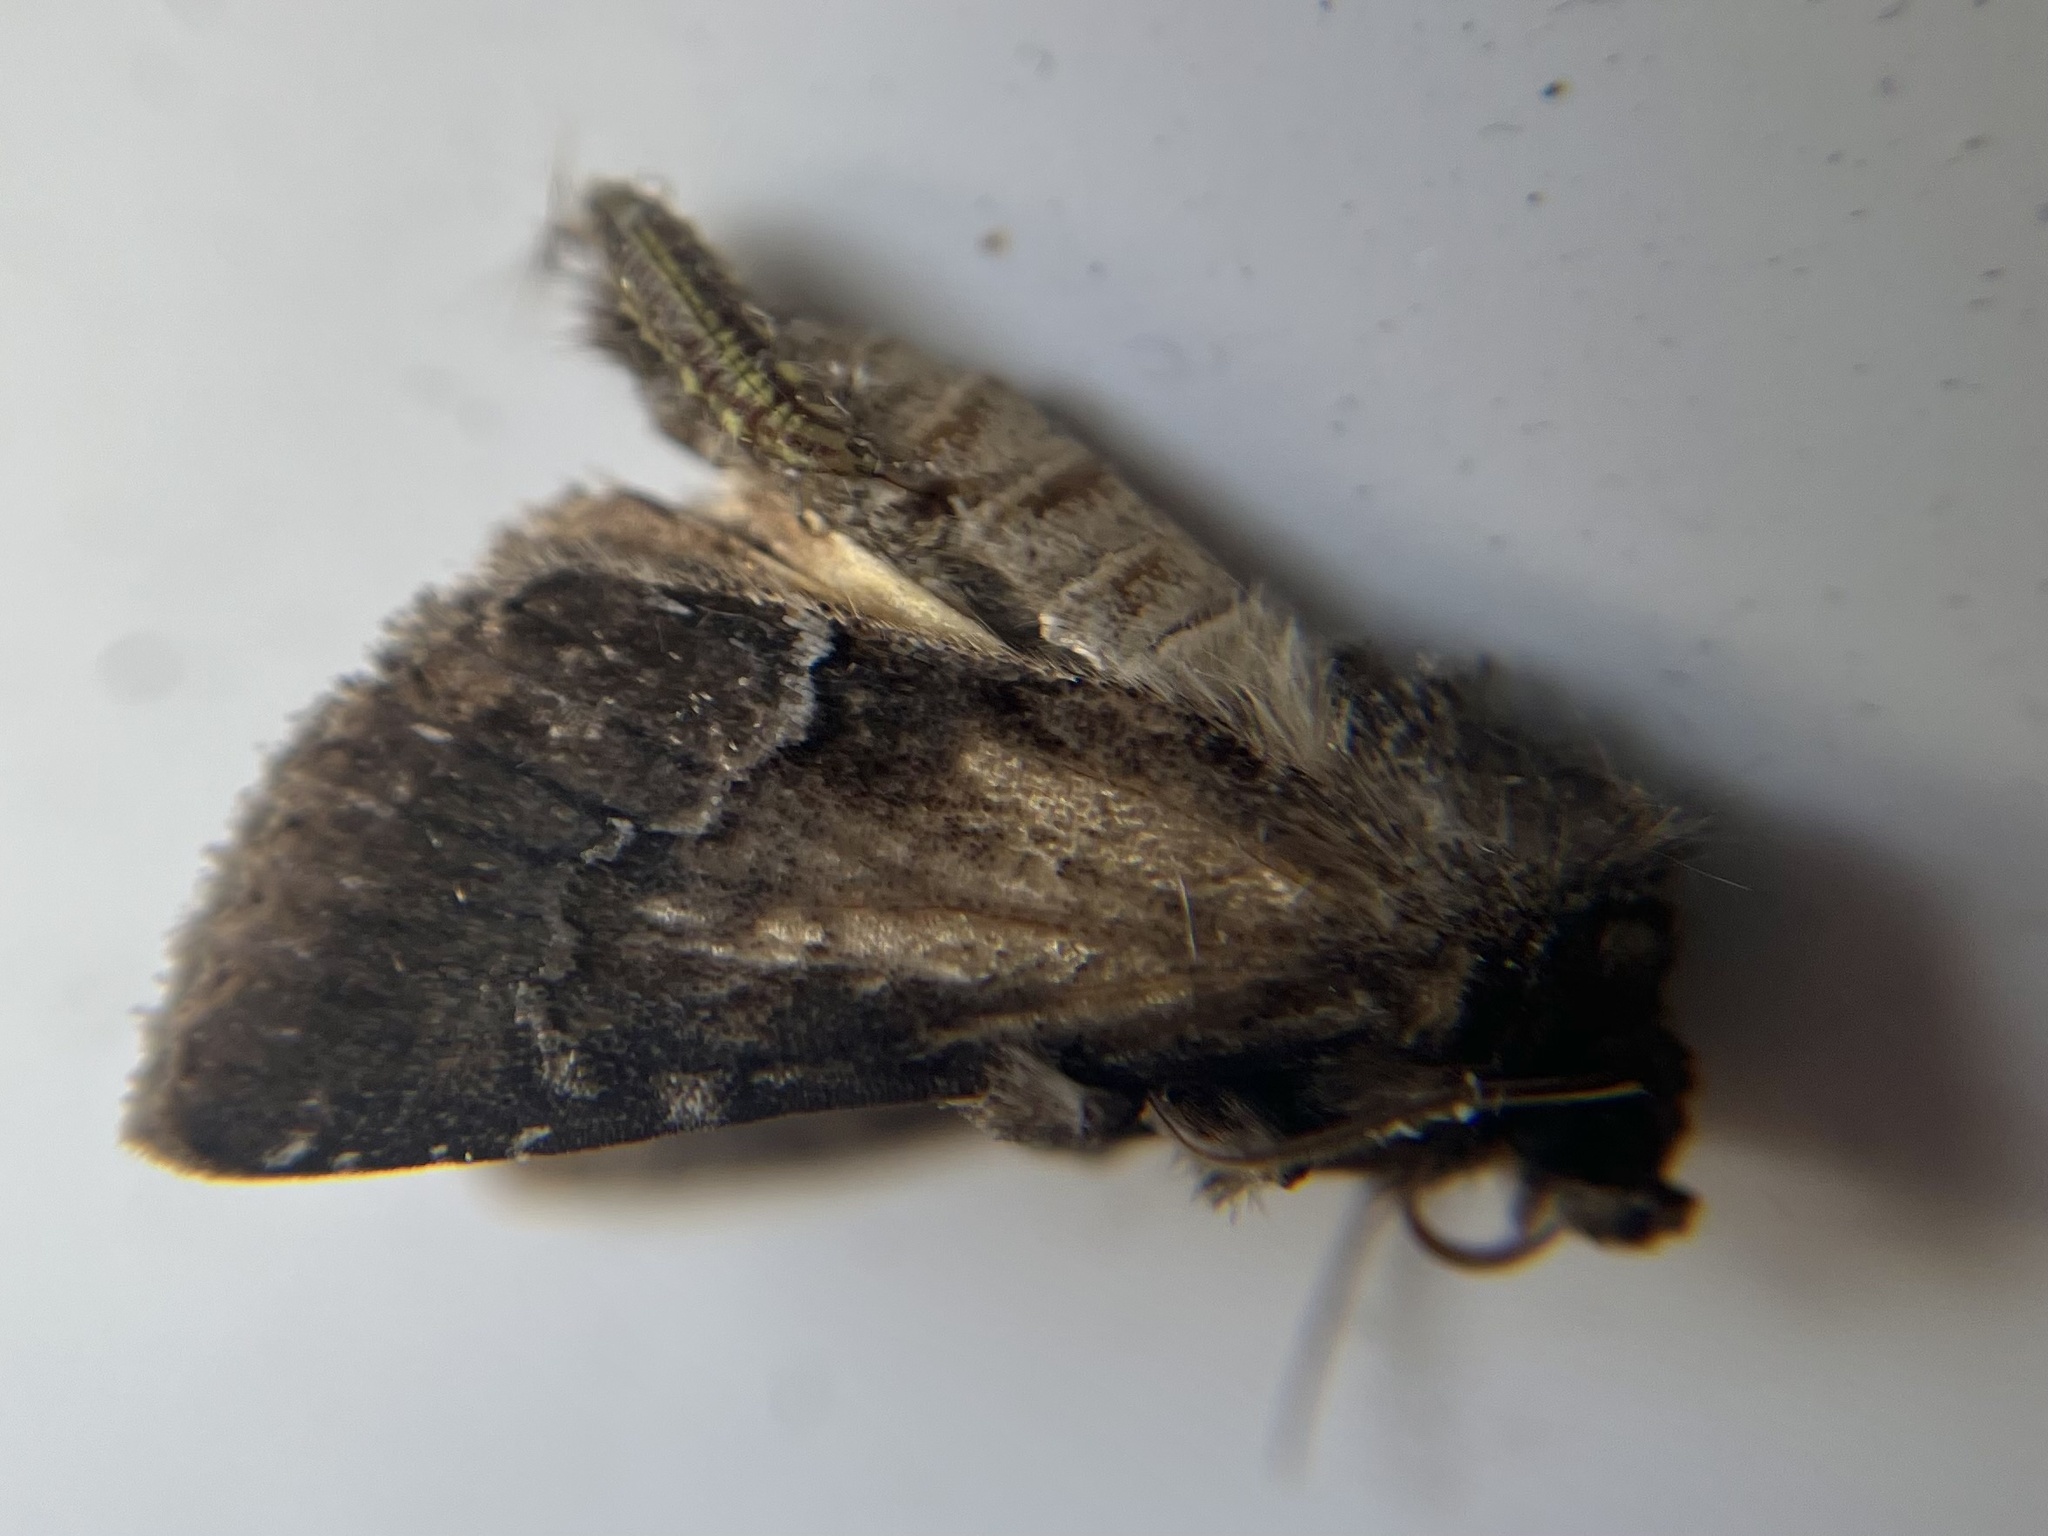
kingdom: Animalia
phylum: Arthropoda
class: Insecta
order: Lepidoptera
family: Noctuidae
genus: Thalpophila
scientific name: Thalpophila matura
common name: Straw underwing
